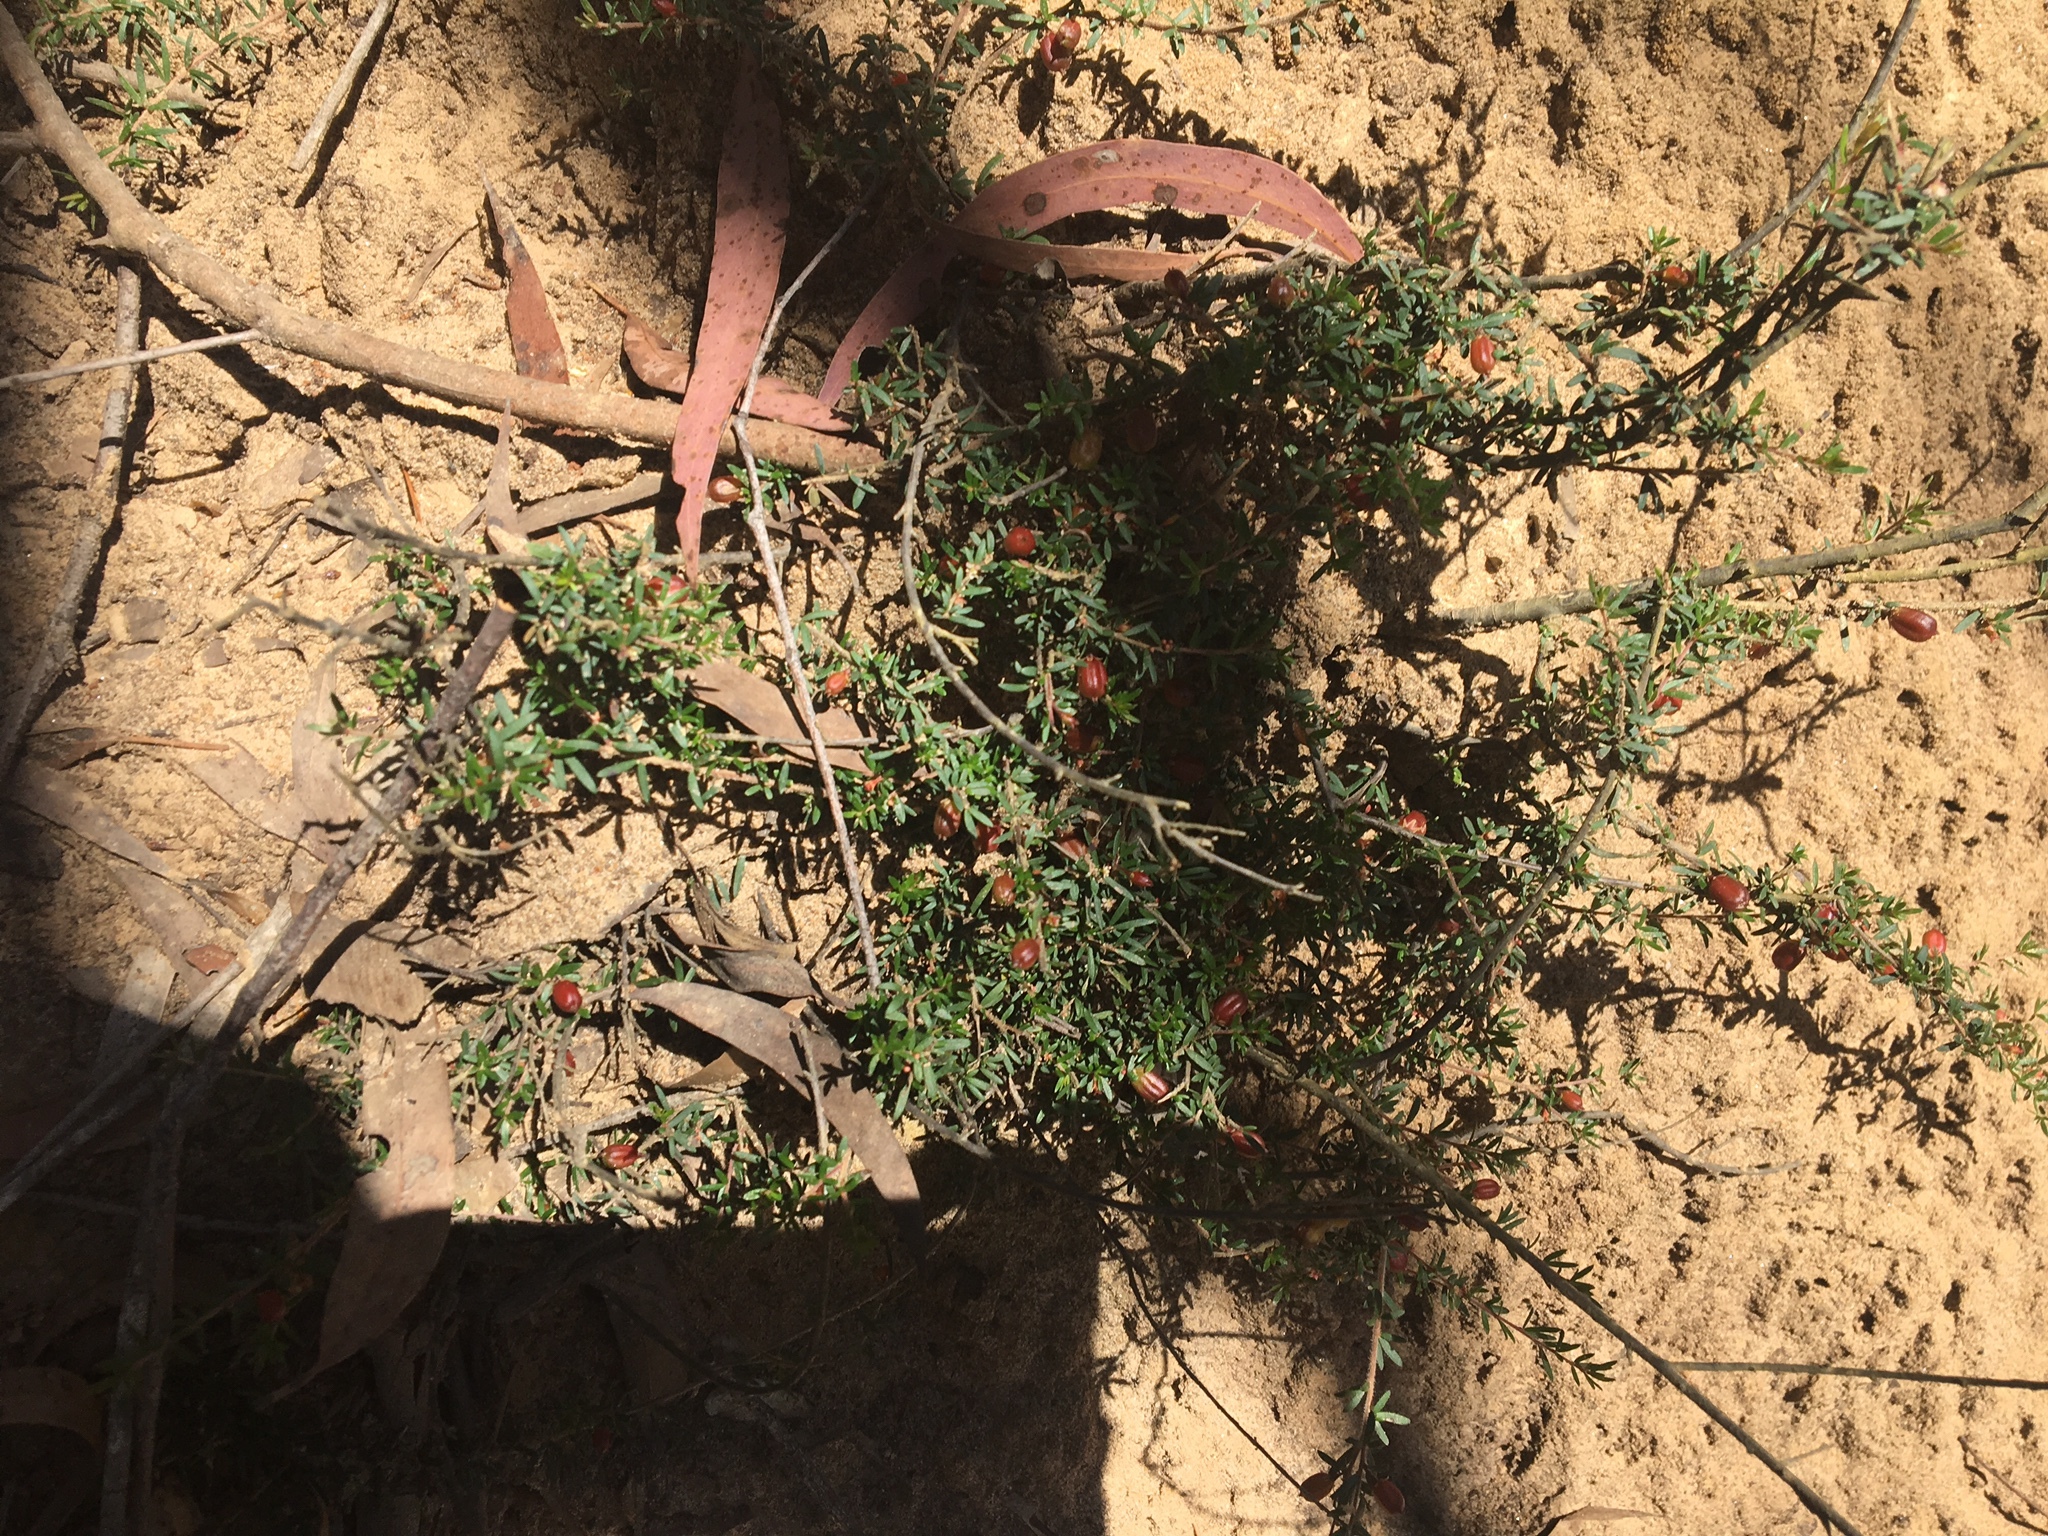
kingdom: Plantae
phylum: Tracheophyta
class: Magnoliopsida
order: Malpighiales
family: Picrodendraceae
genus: Micrantheum
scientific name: Micrantheum ericoides
